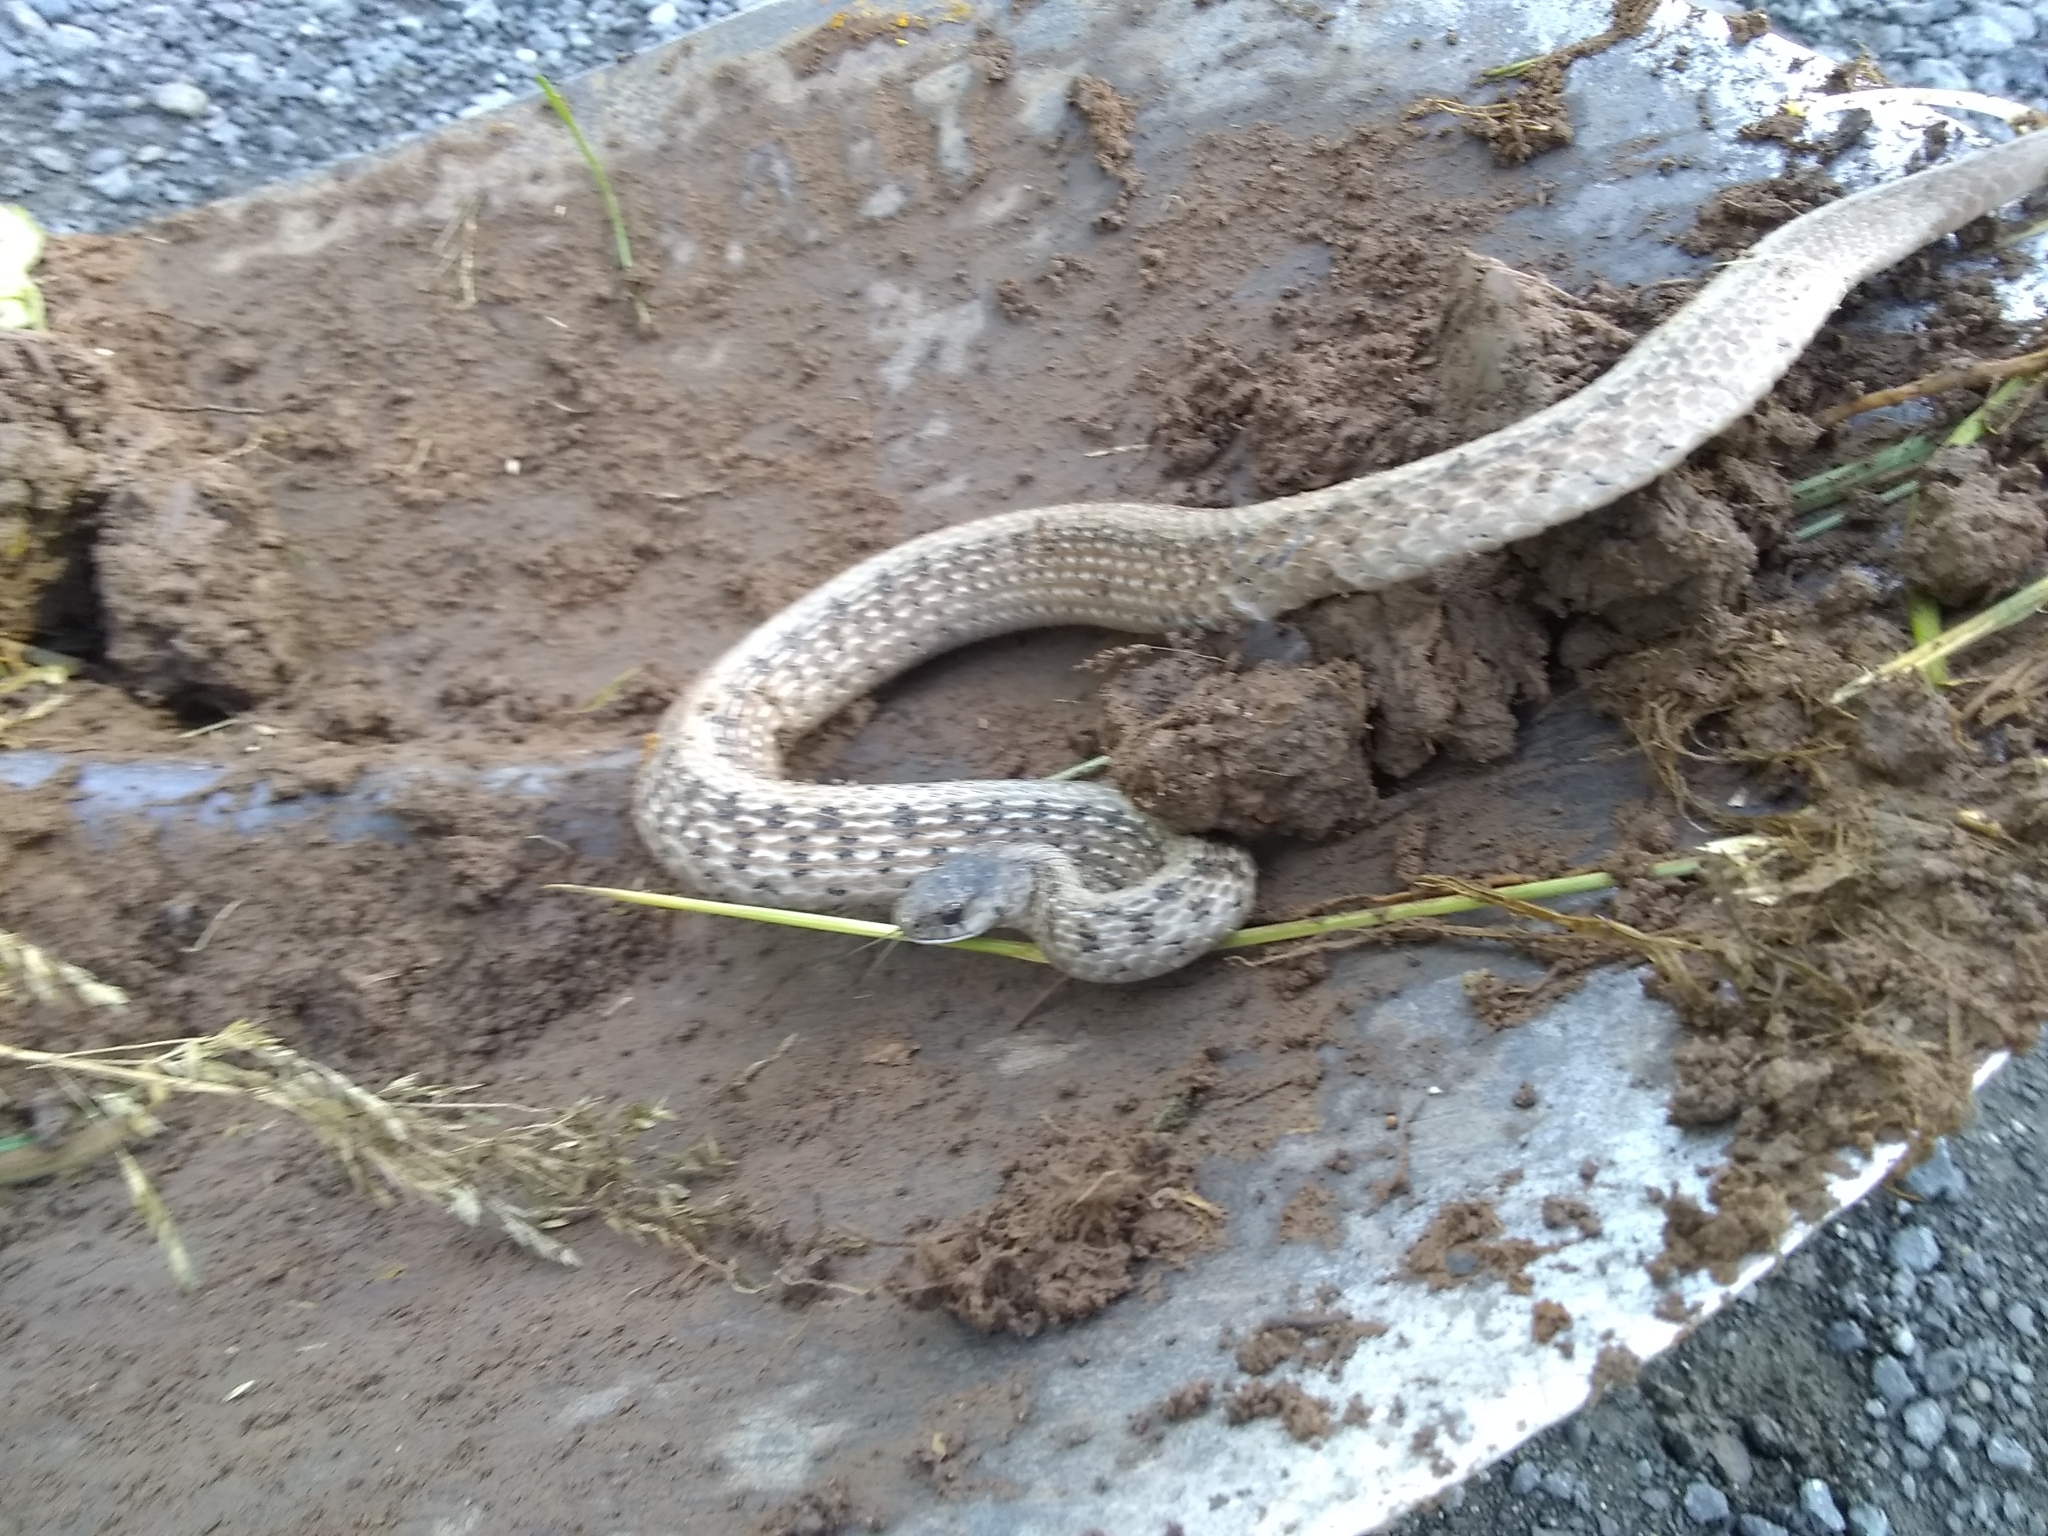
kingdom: Animalia
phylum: Chordata
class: Squamata
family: Colubridae
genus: Storeria
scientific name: Storeria dekayi
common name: (dekay’s) brown snake
